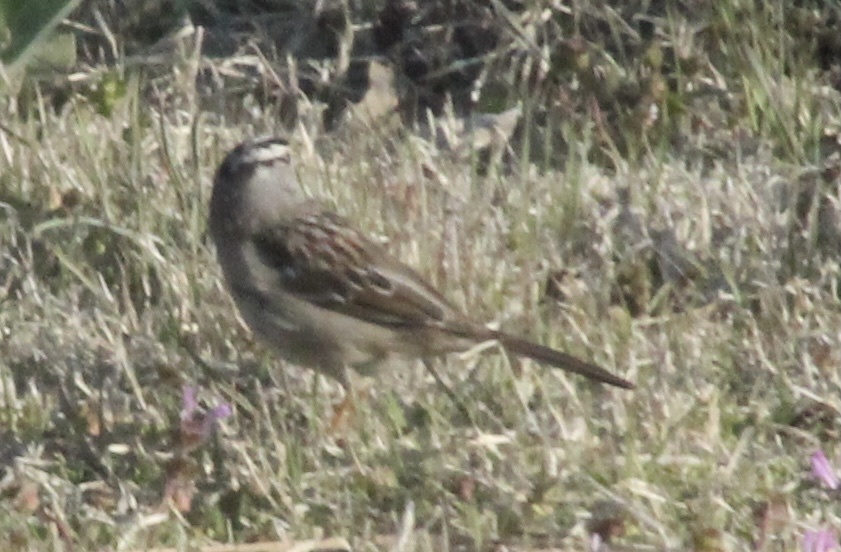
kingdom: Animalia
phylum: Chordata
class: Aves
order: Passeriformes
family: Passerellidae
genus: Zonotrichia
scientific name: Zonotrichia leucophrys
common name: White-crowned sparrow
